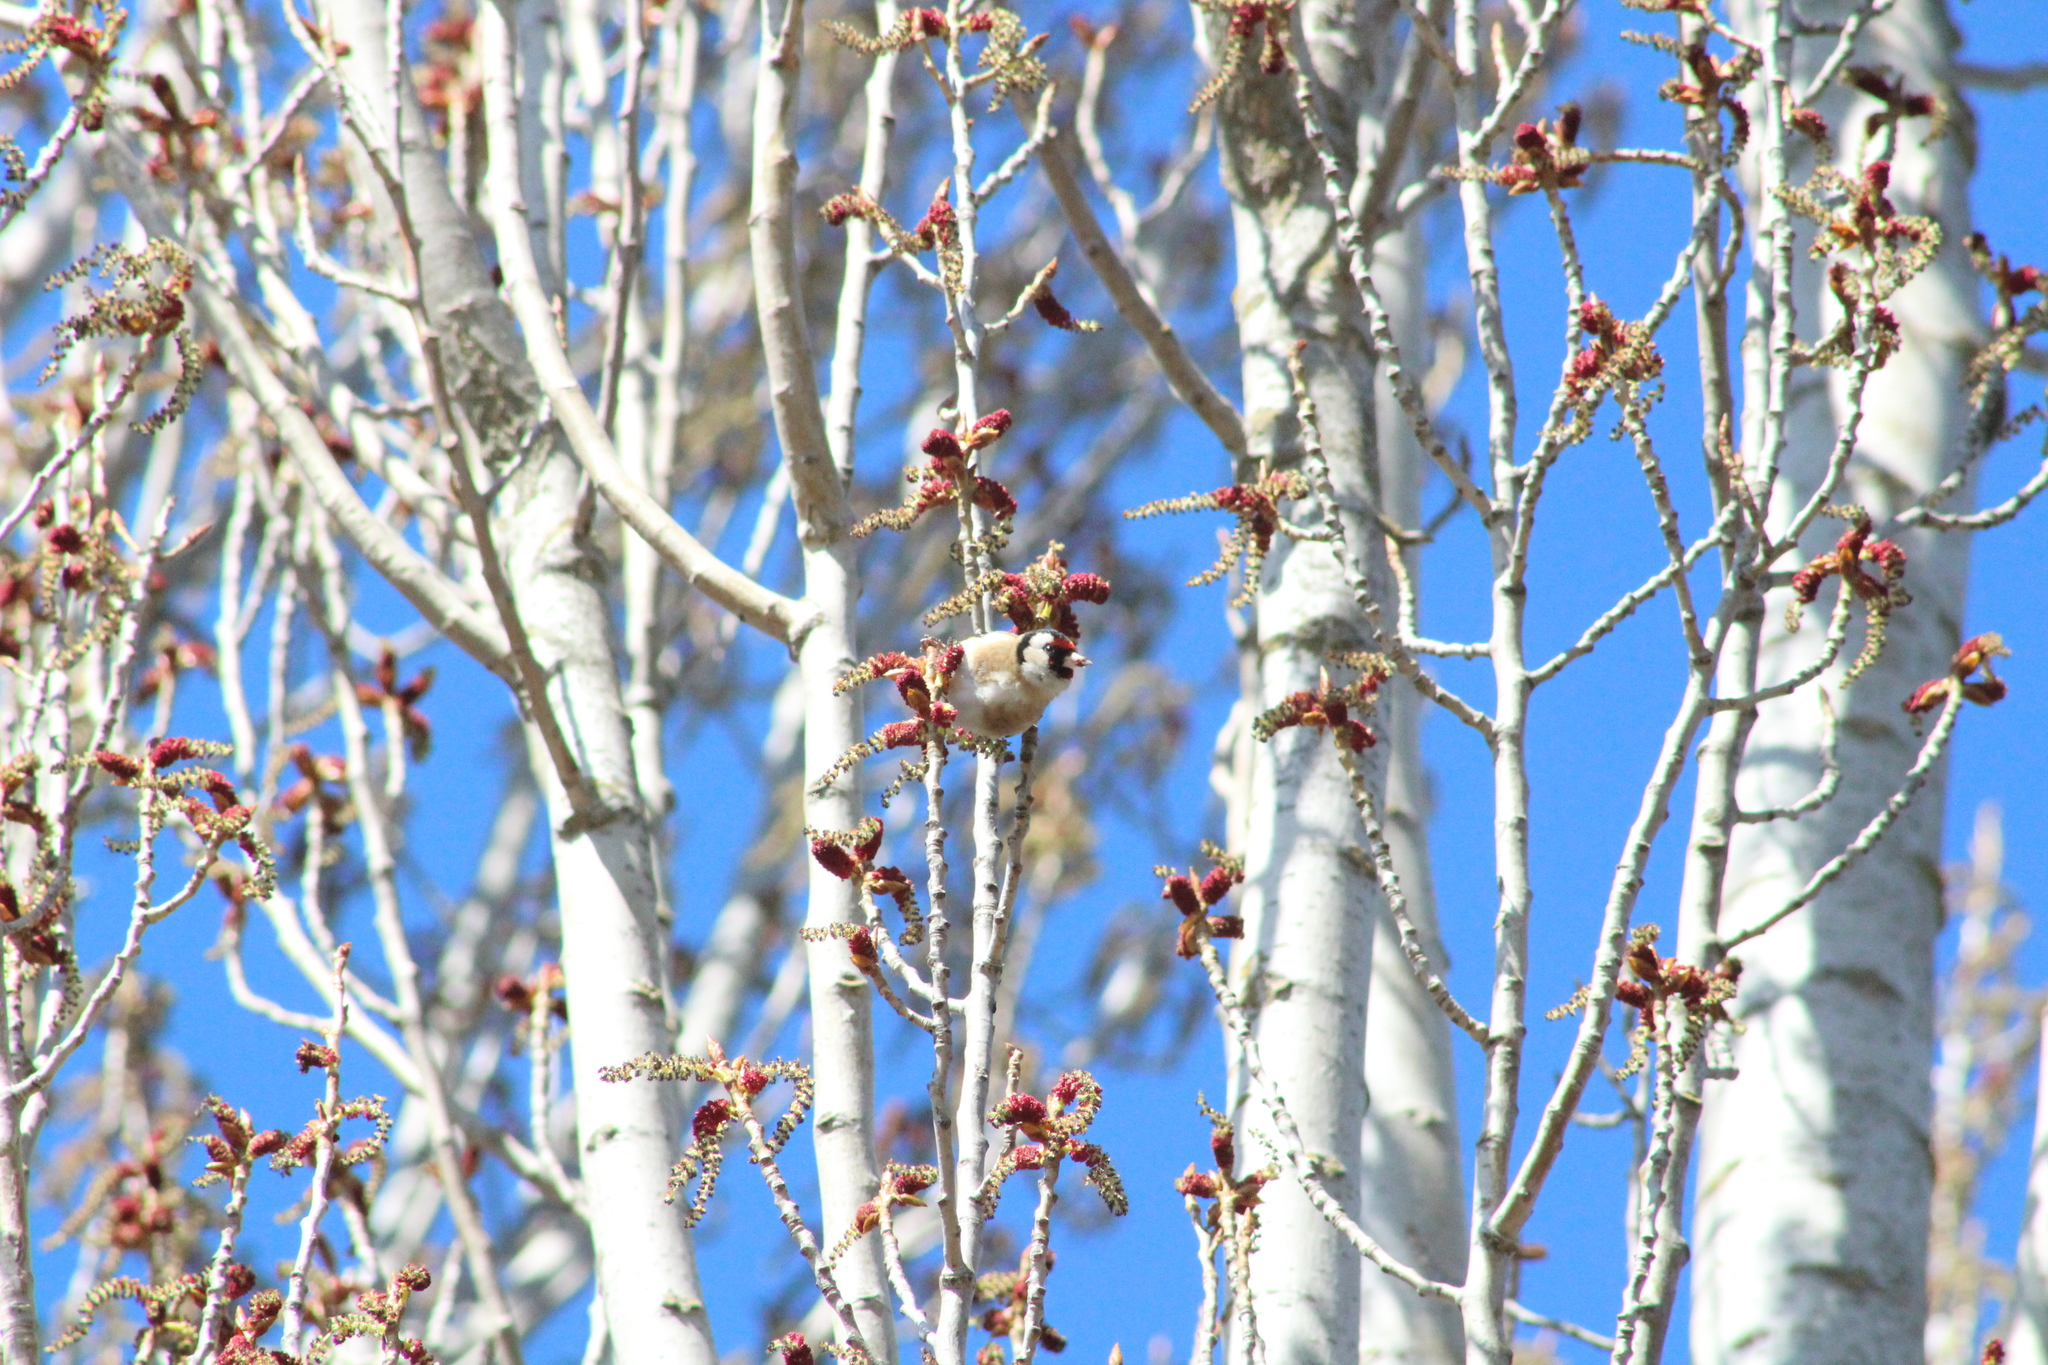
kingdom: Animalia
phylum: Chordata
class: Aves
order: Passeriformes
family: Fringillidae
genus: Carduelis
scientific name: Carduelis carduelis
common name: European goldfinch
